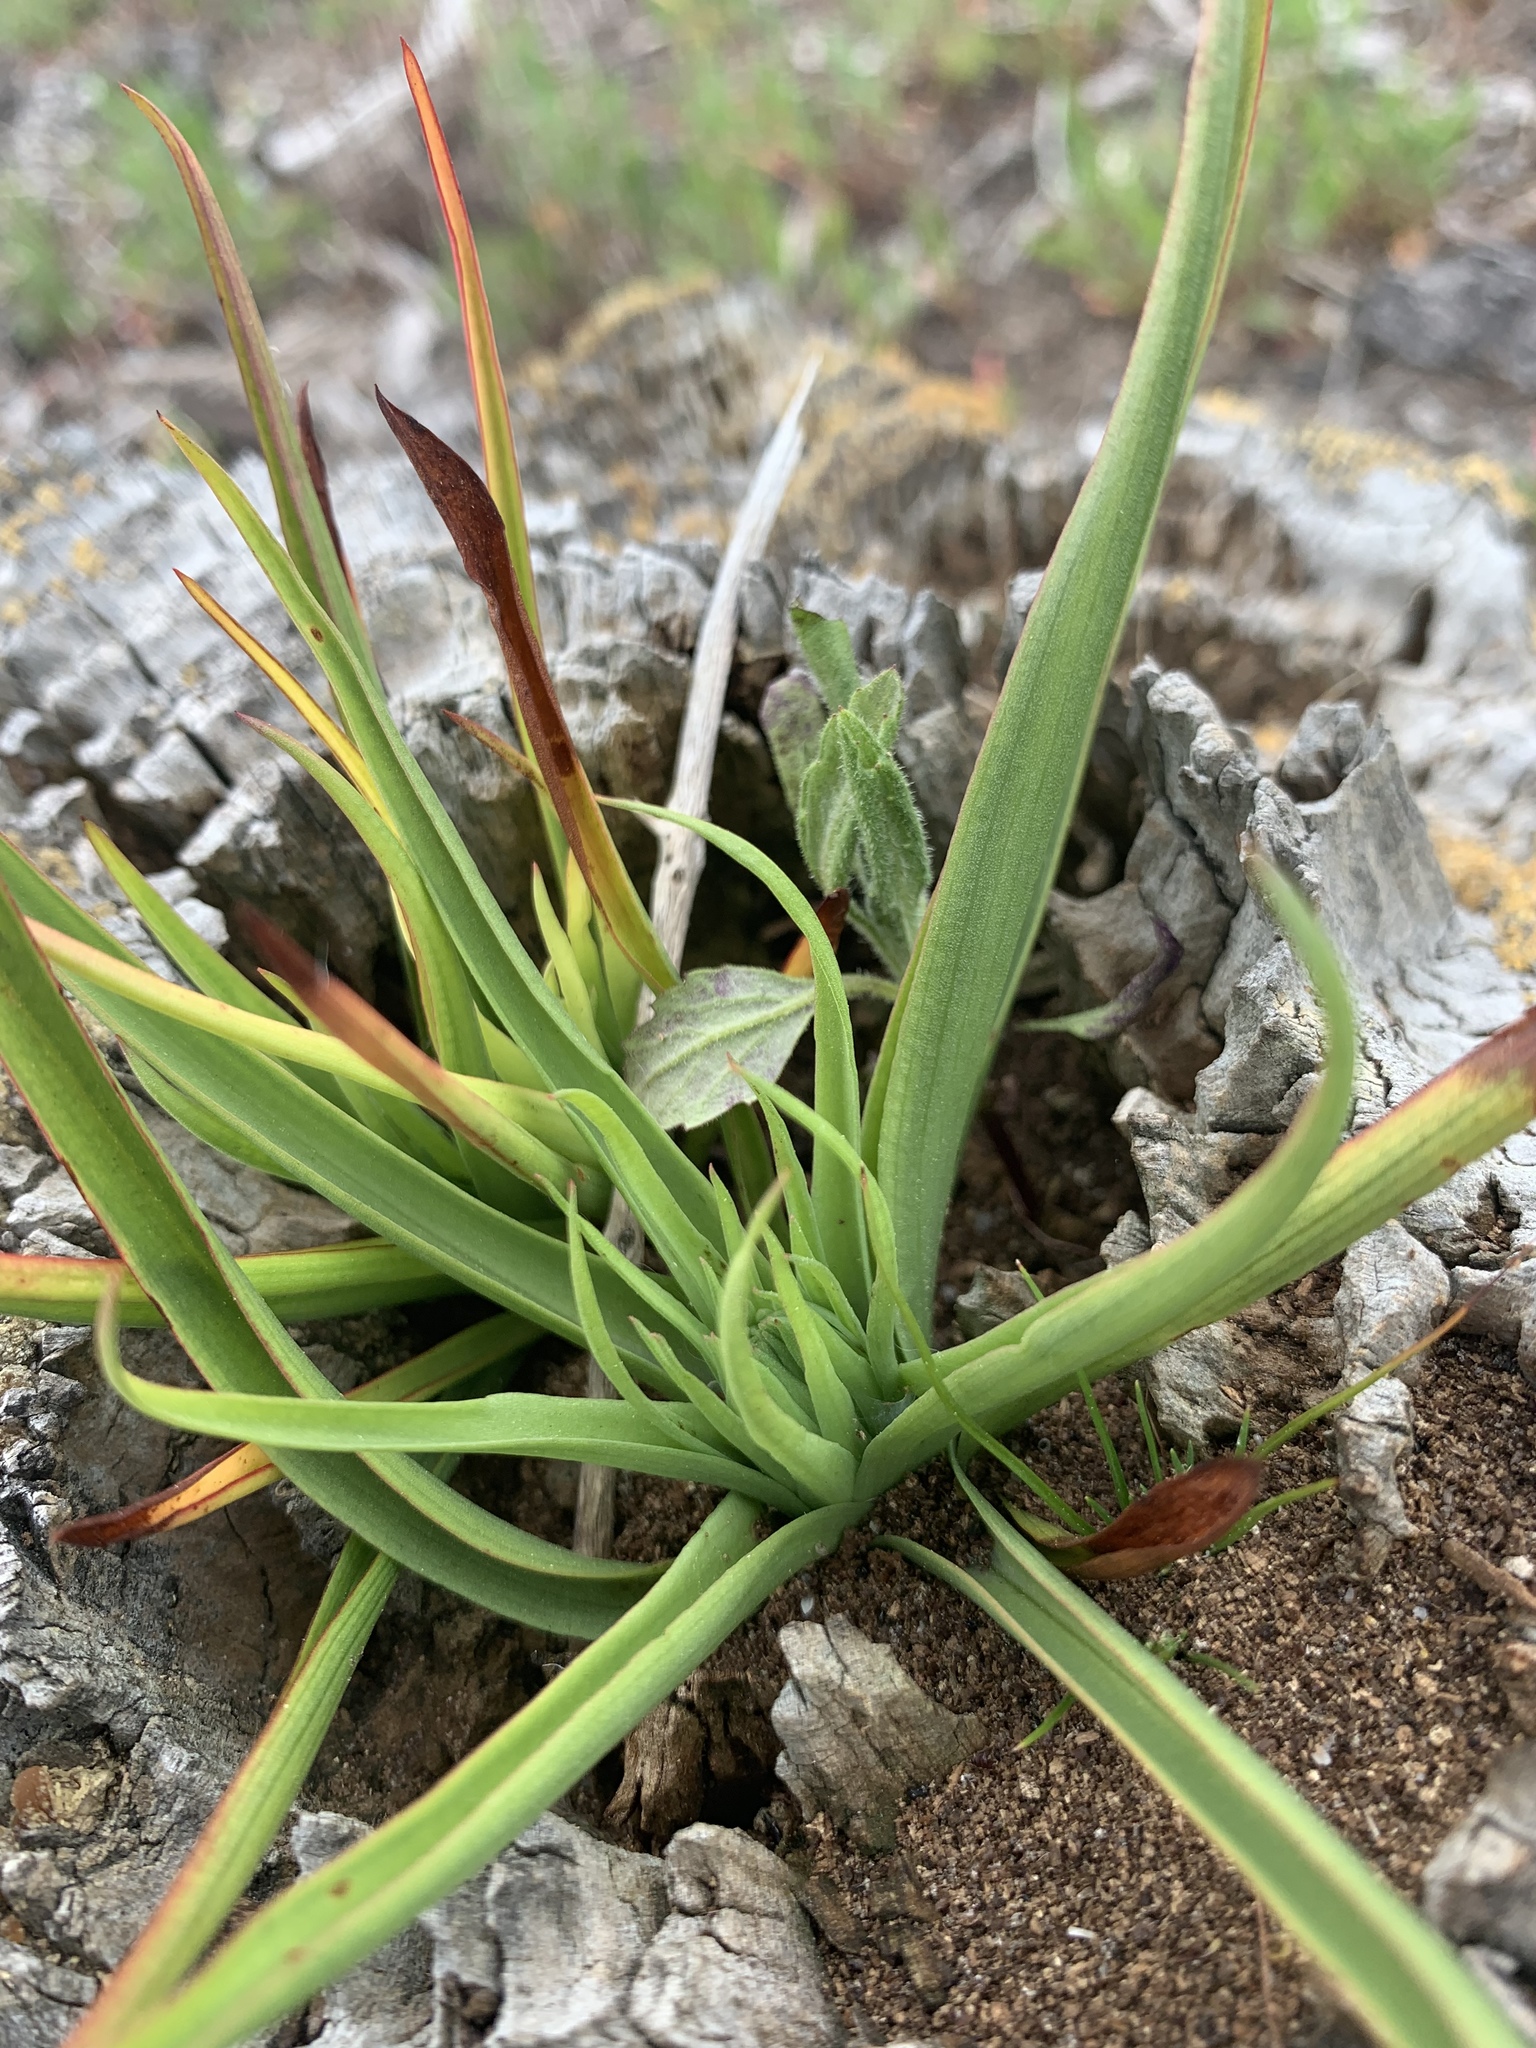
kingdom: Plantae
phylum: Tracheophyta
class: Liliopsida
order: Asparagales
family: Orchidaceae
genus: Disa
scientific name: Disa bracteata
